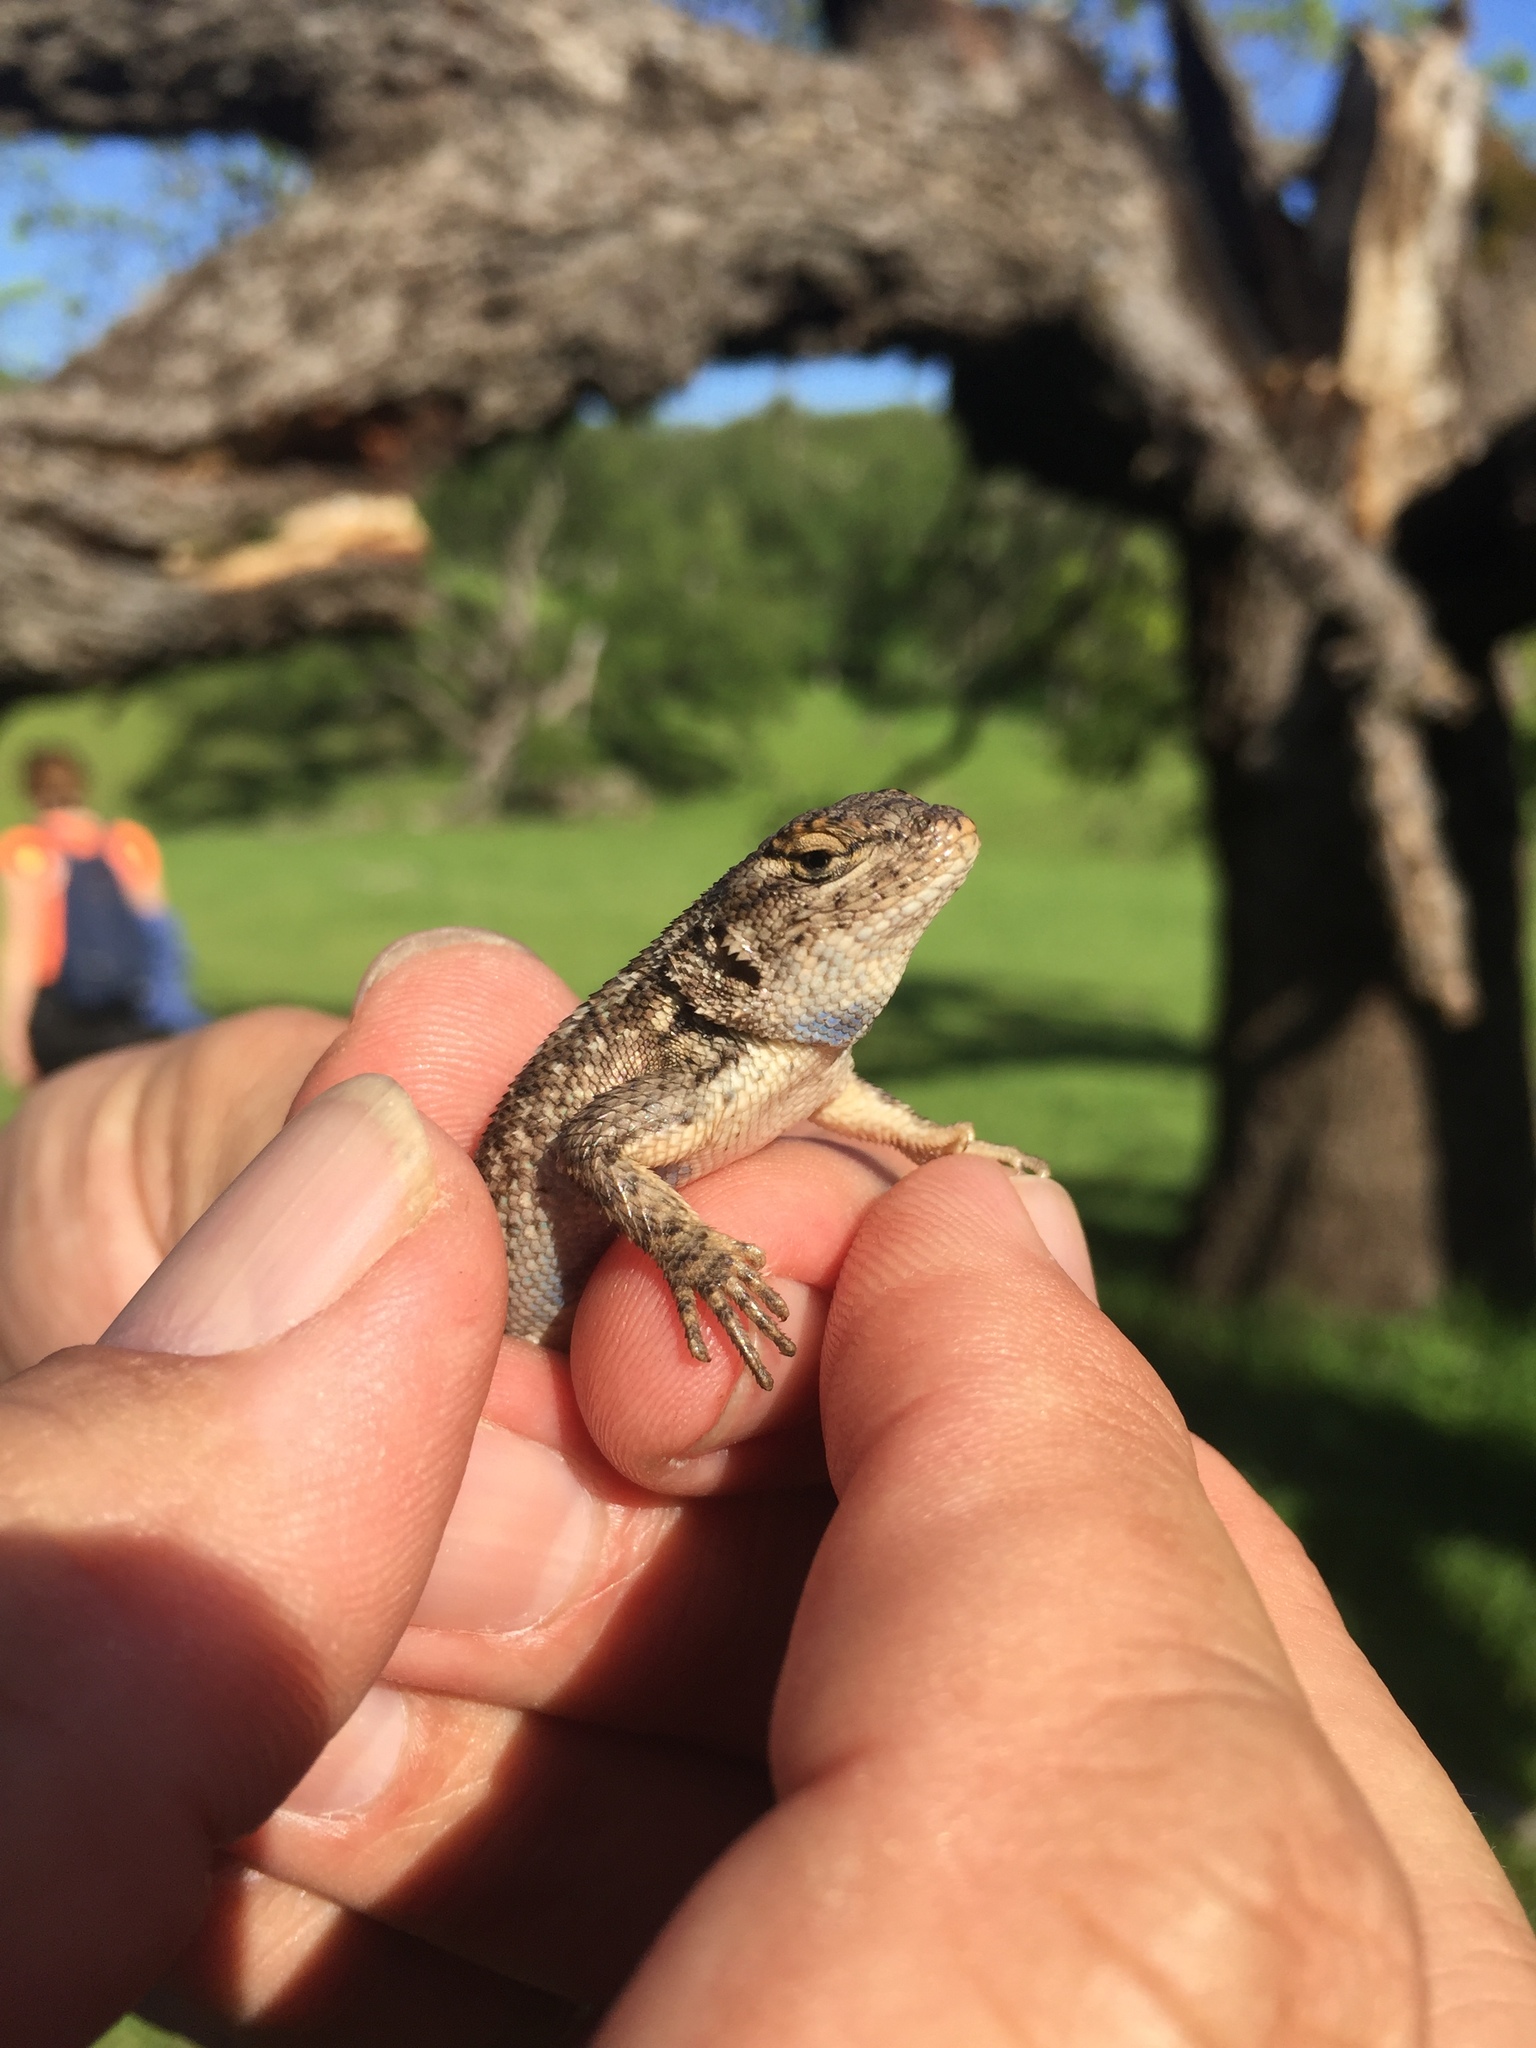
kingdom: Animalia
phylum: Chordata
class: Squamata
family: Phrynosomatidae
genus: Sceloporus
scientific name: Sceloporus occidentalis
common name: Western fence lizard
